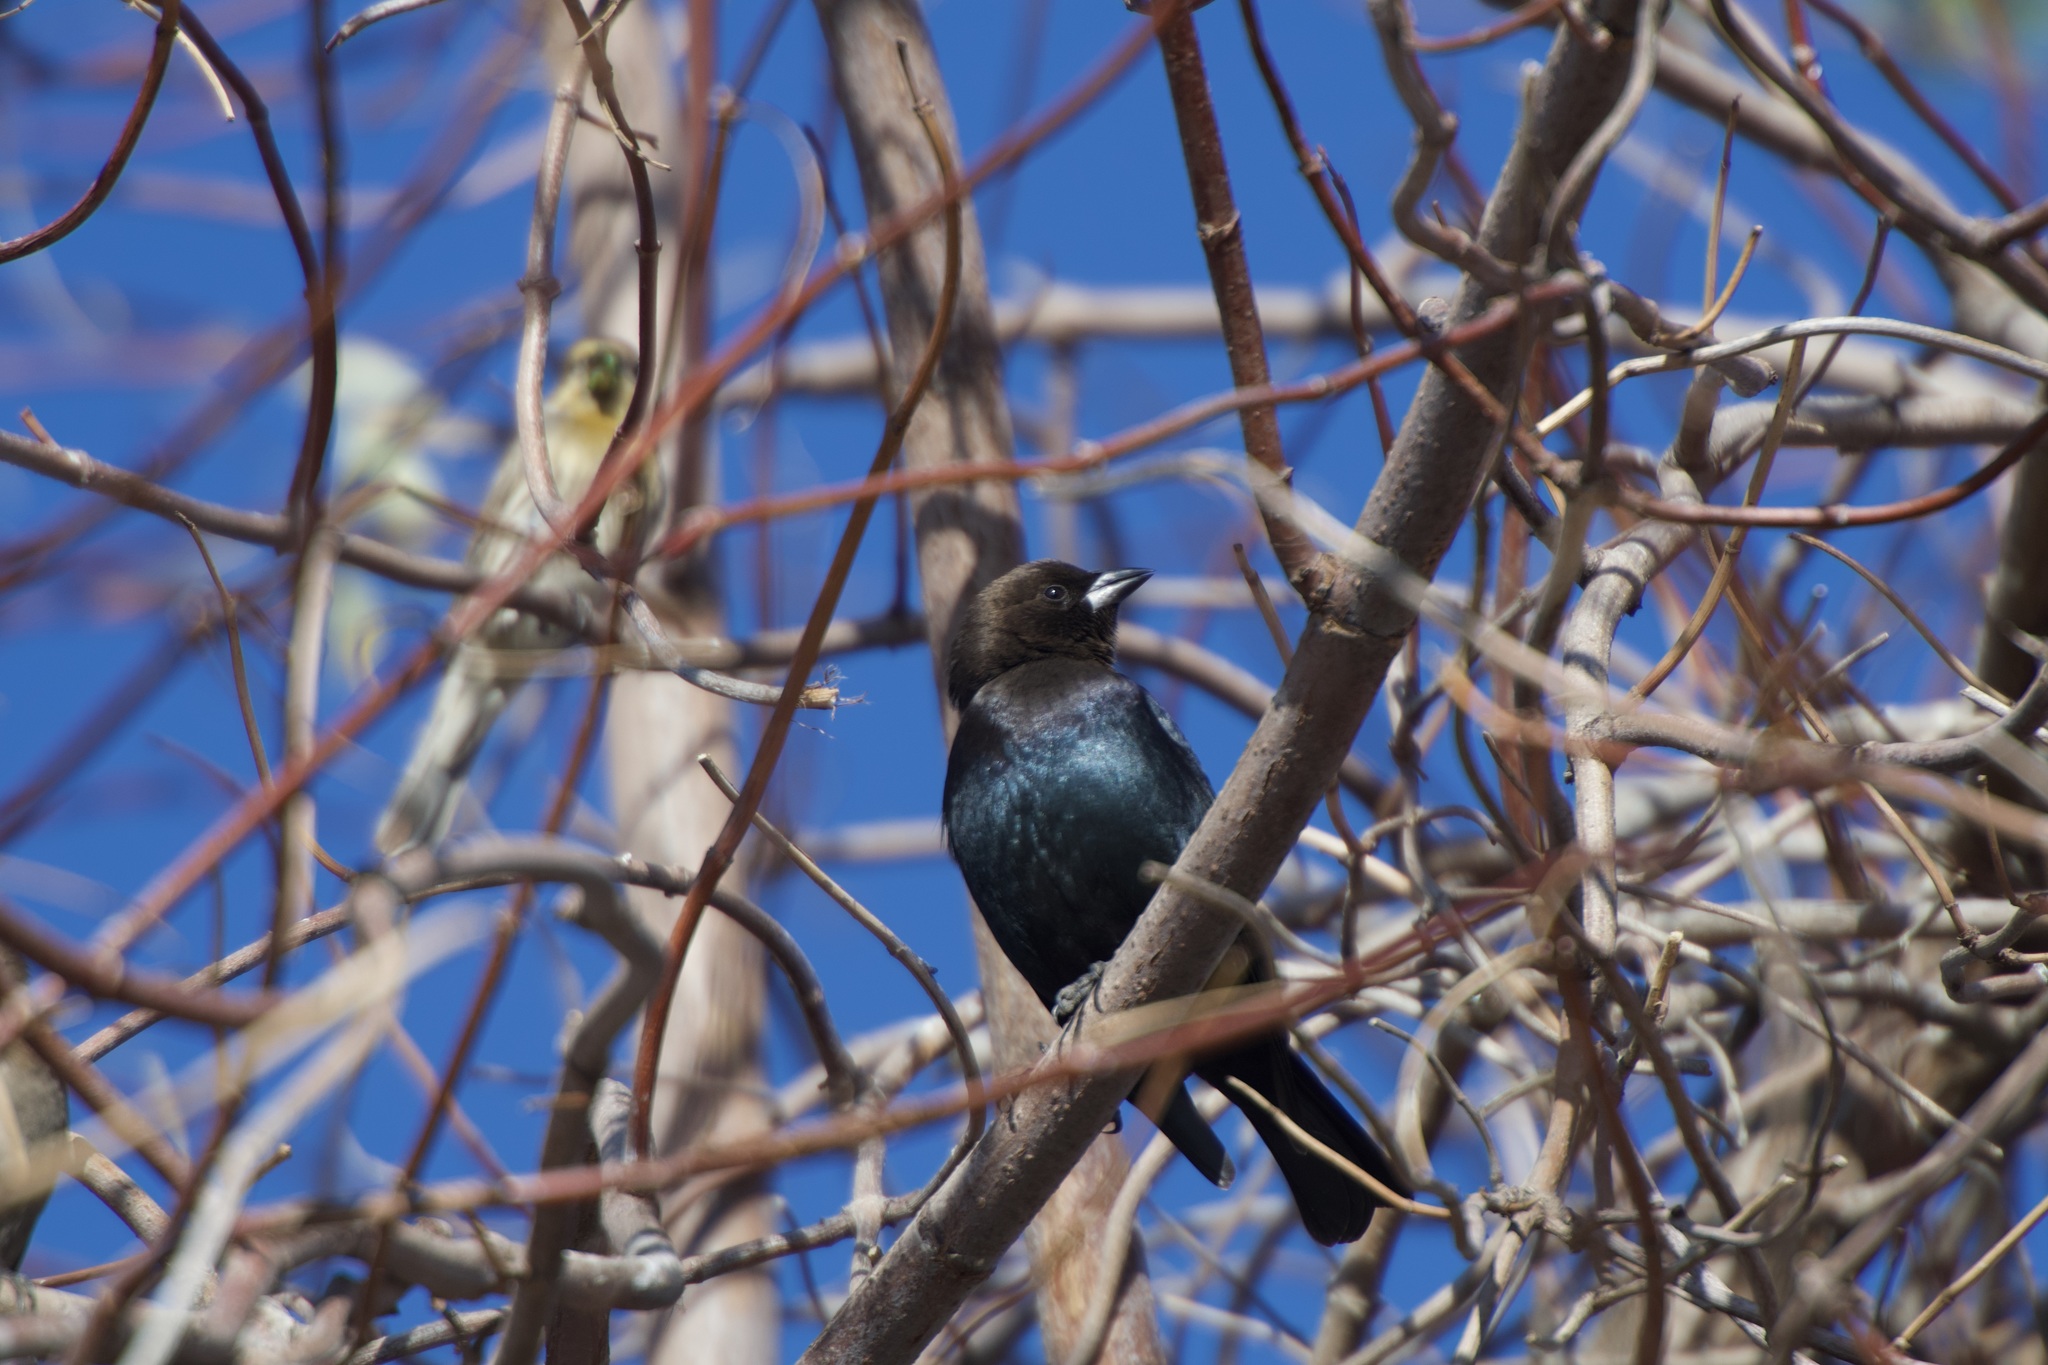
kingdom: Animalia
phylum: Chordata
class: Aves
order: Passeriformes
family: Icteridae
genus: Molothrus
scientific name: Molothrus ater
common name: Brown-headed cowbird
